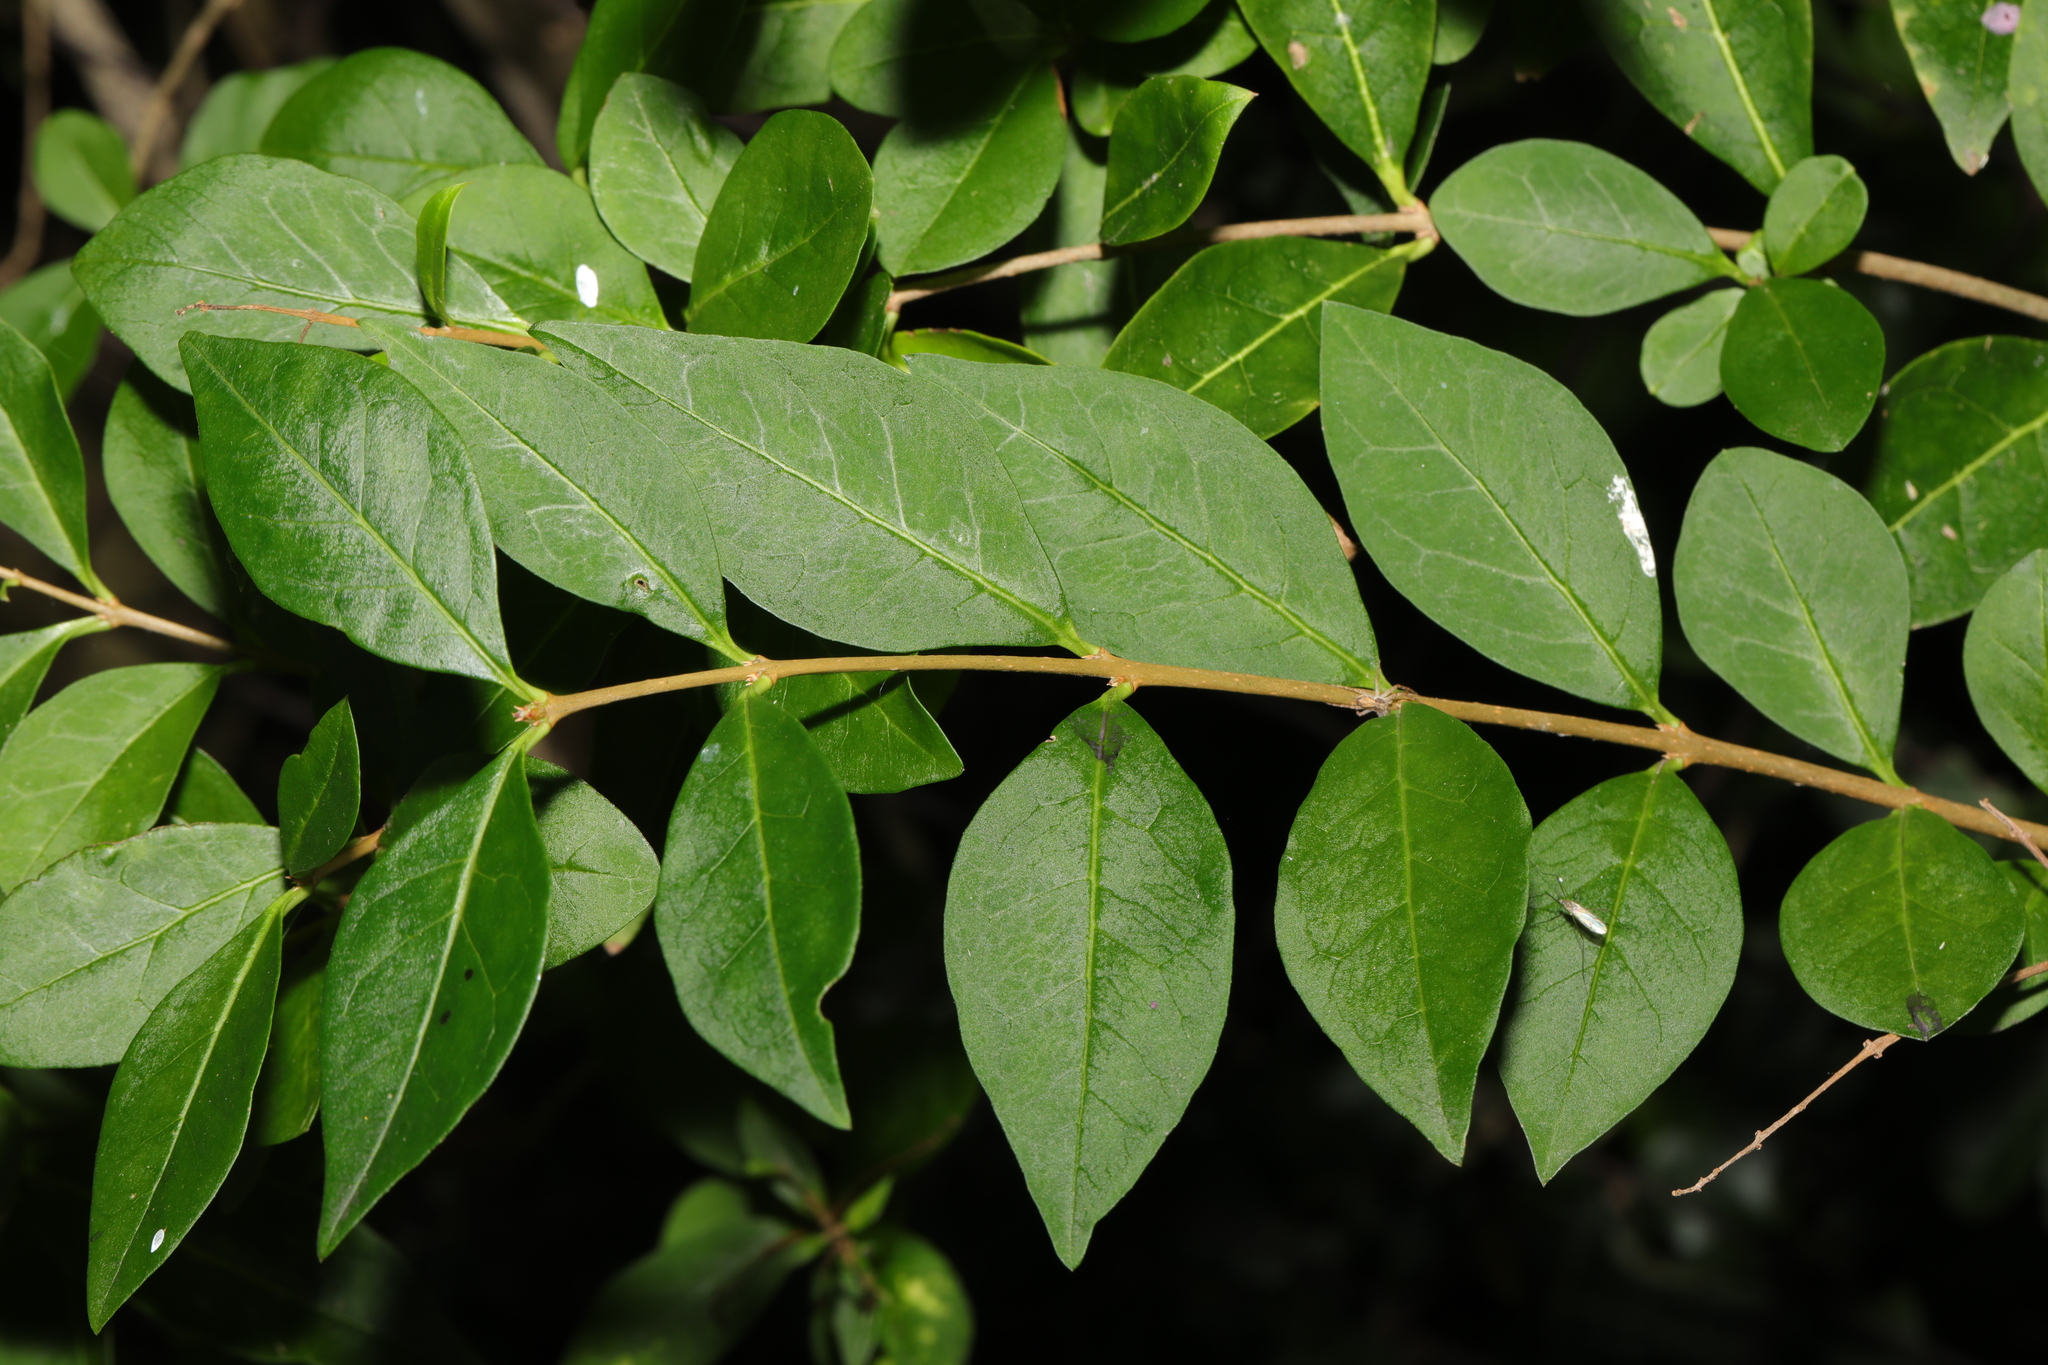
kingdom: Plantae
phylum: Tracheophyta
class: Magnoliopsida
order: Lamiales
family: Oleaceae
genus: Ligustrum
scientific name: Ligustrum ovalifolium
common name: California privet
